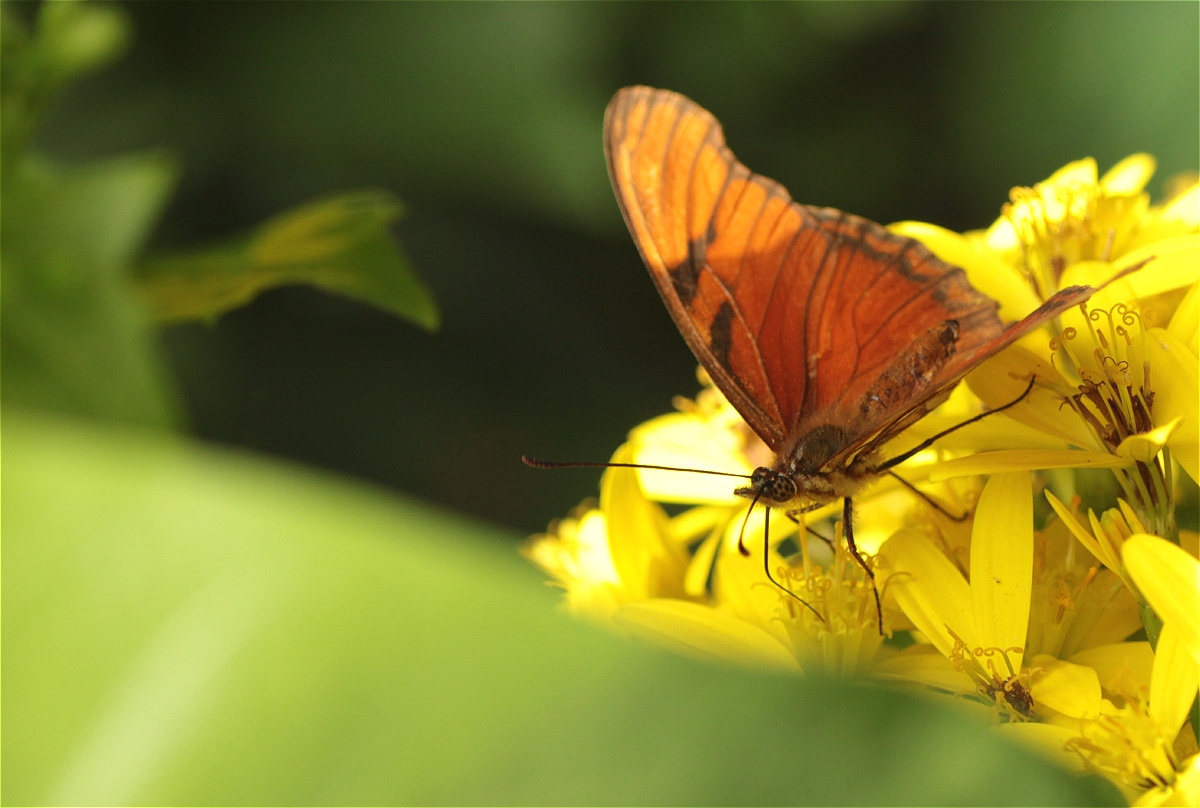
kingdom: Animalia
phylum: Arthropoda
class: Insecta
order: Lepidoptera
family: Nymphalidae
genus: Dione
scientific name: Dione juno
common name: Juno silverspot
